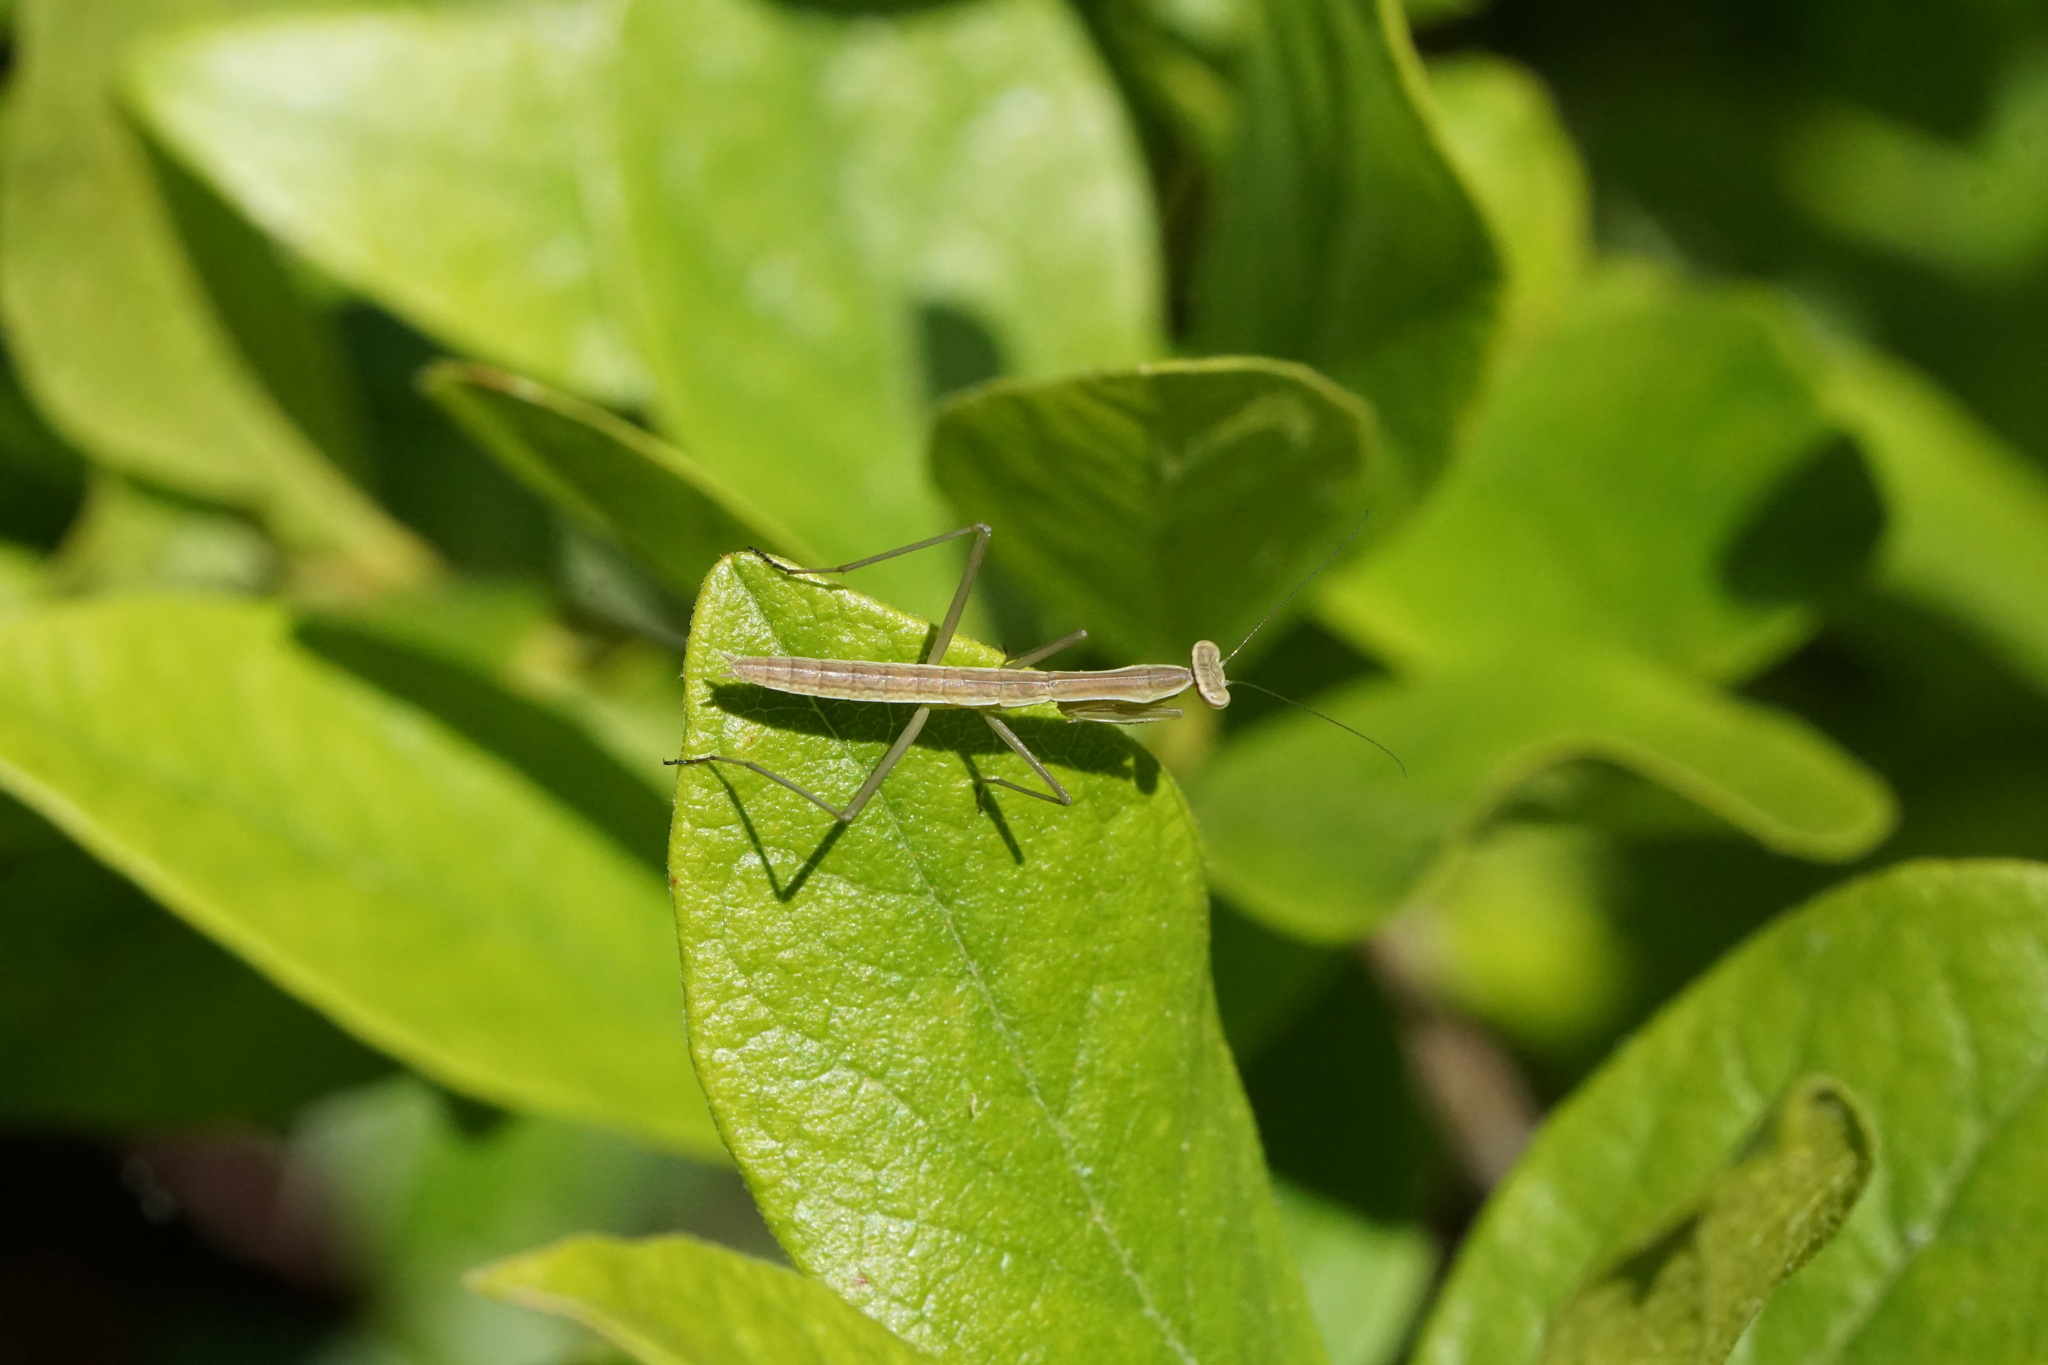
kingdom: Animalia
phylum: Arthropoda
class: Insecta
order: Mantodea
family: Mantidae
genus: Tenodera
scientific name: Tenodera sinensis
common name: Chinese mantis
